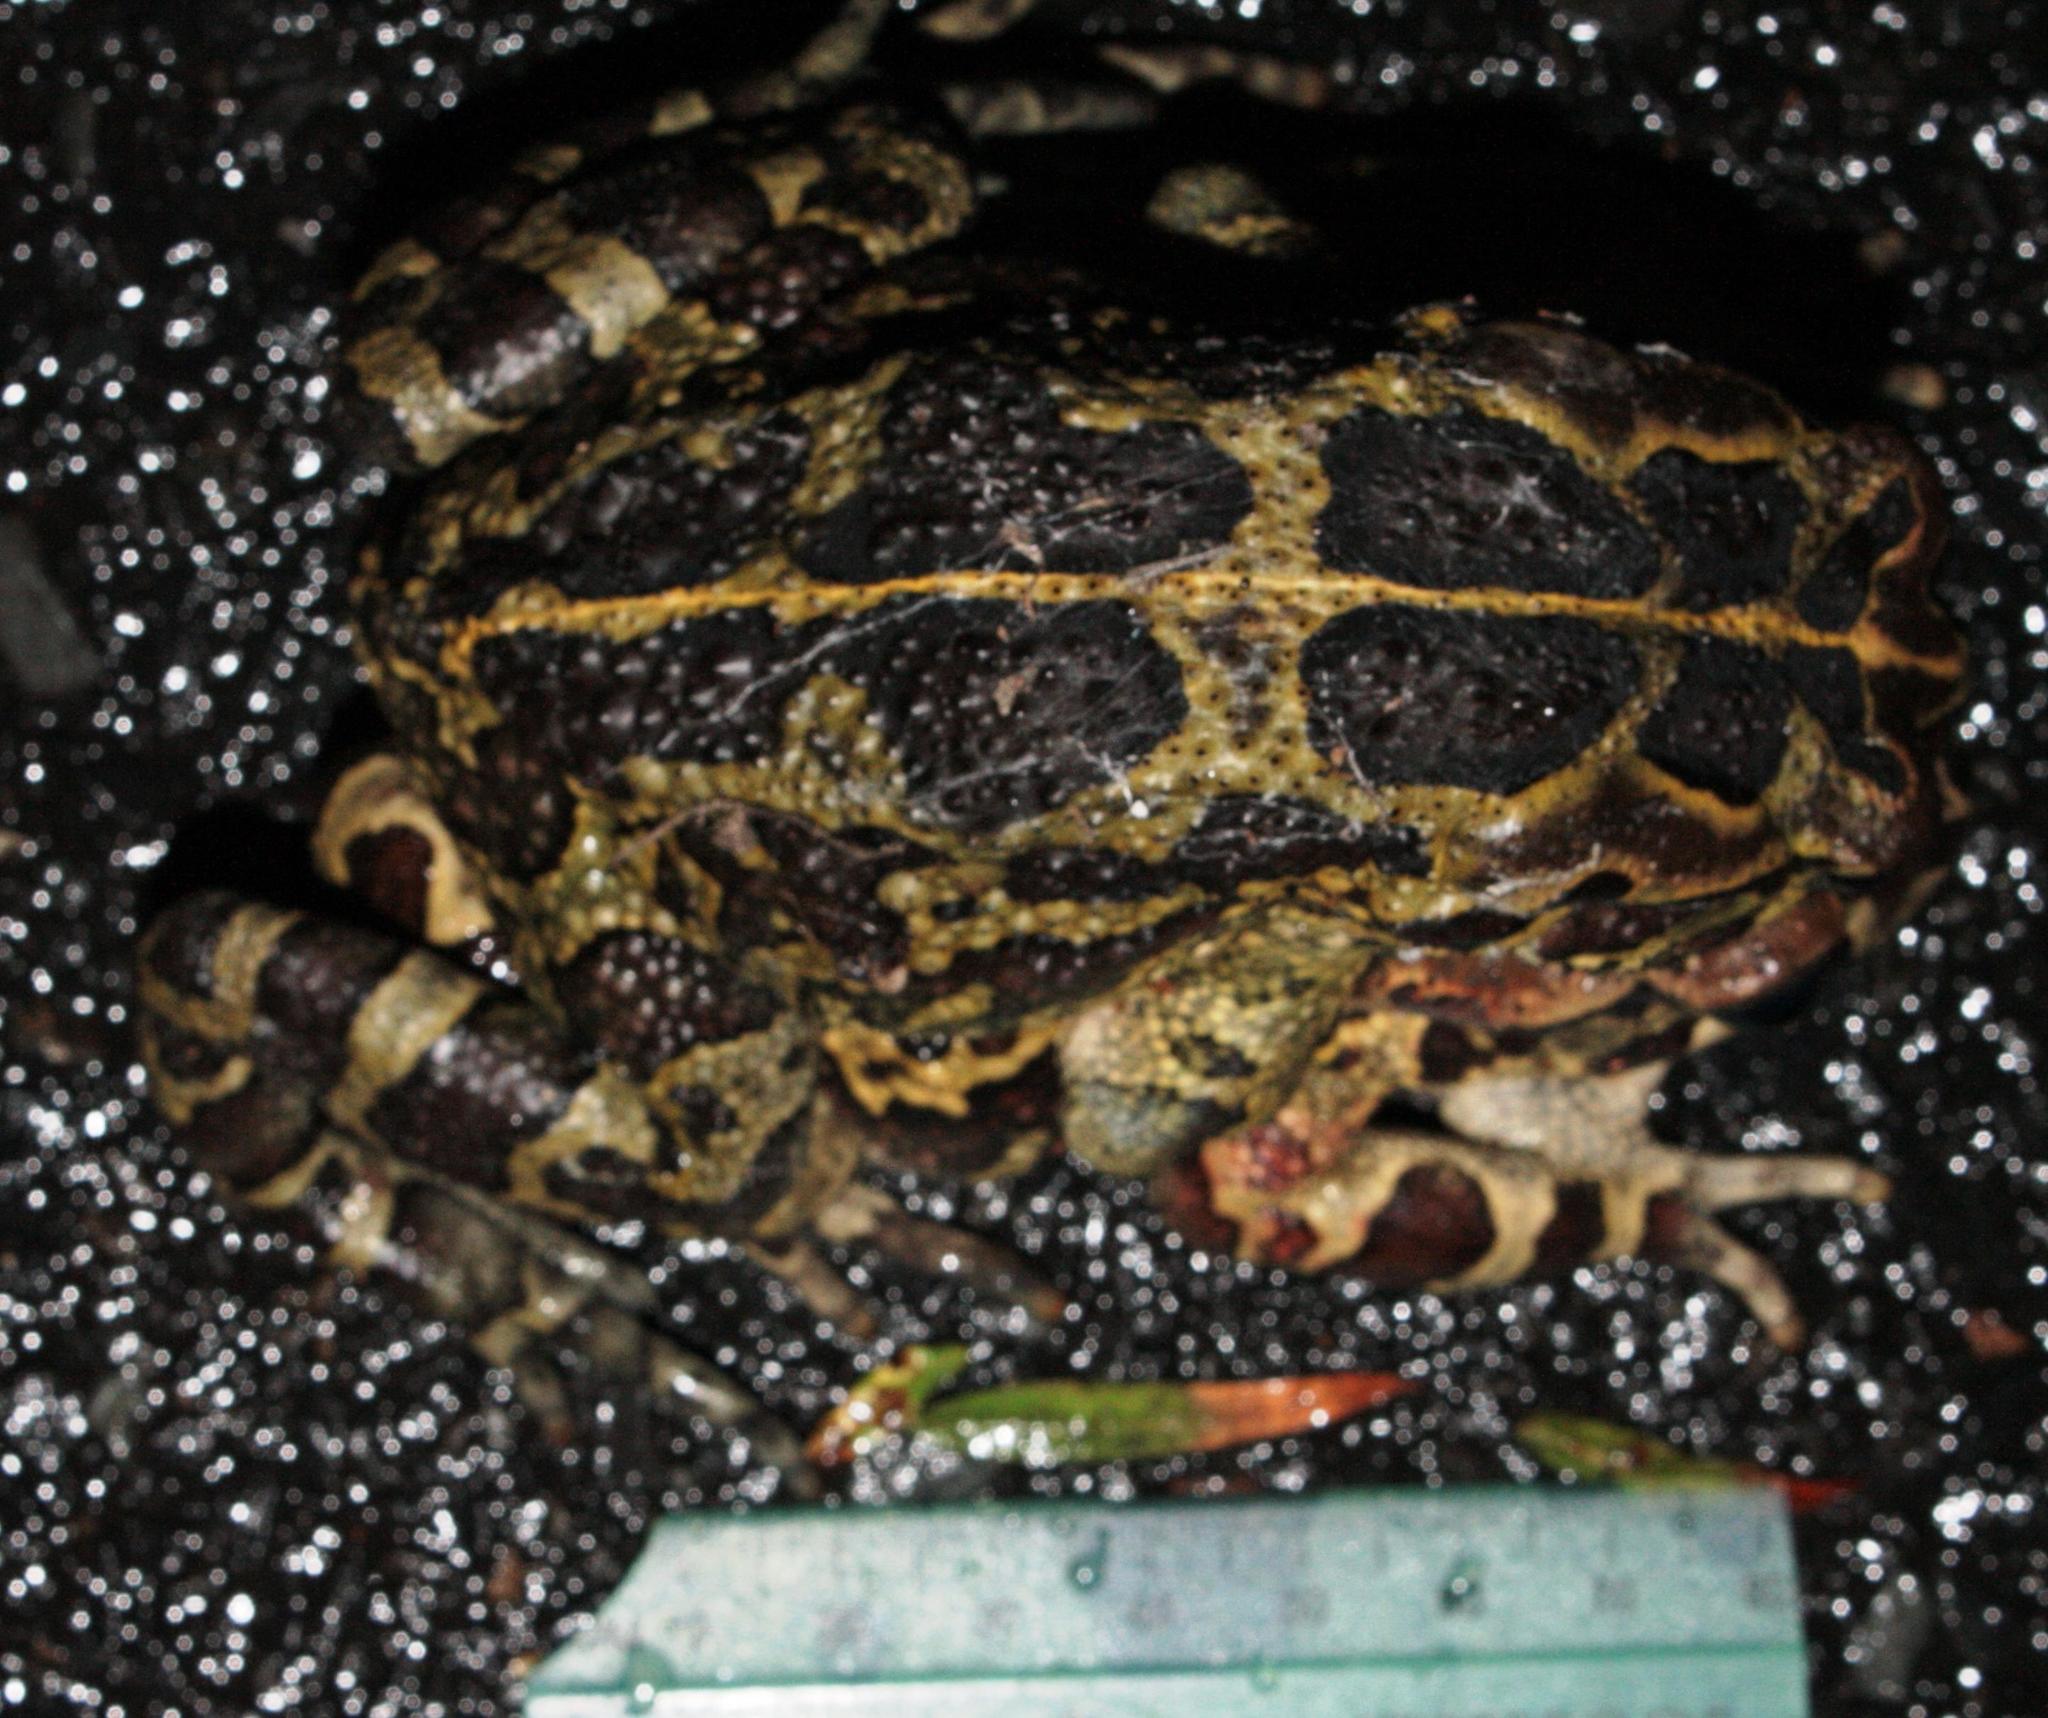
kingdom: Animalia
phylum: Chordata
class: Amphibia
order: Anura
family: Bufonidae
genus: Sclerophrys
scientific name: Sclerophrys pantherina
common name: Panther toad
